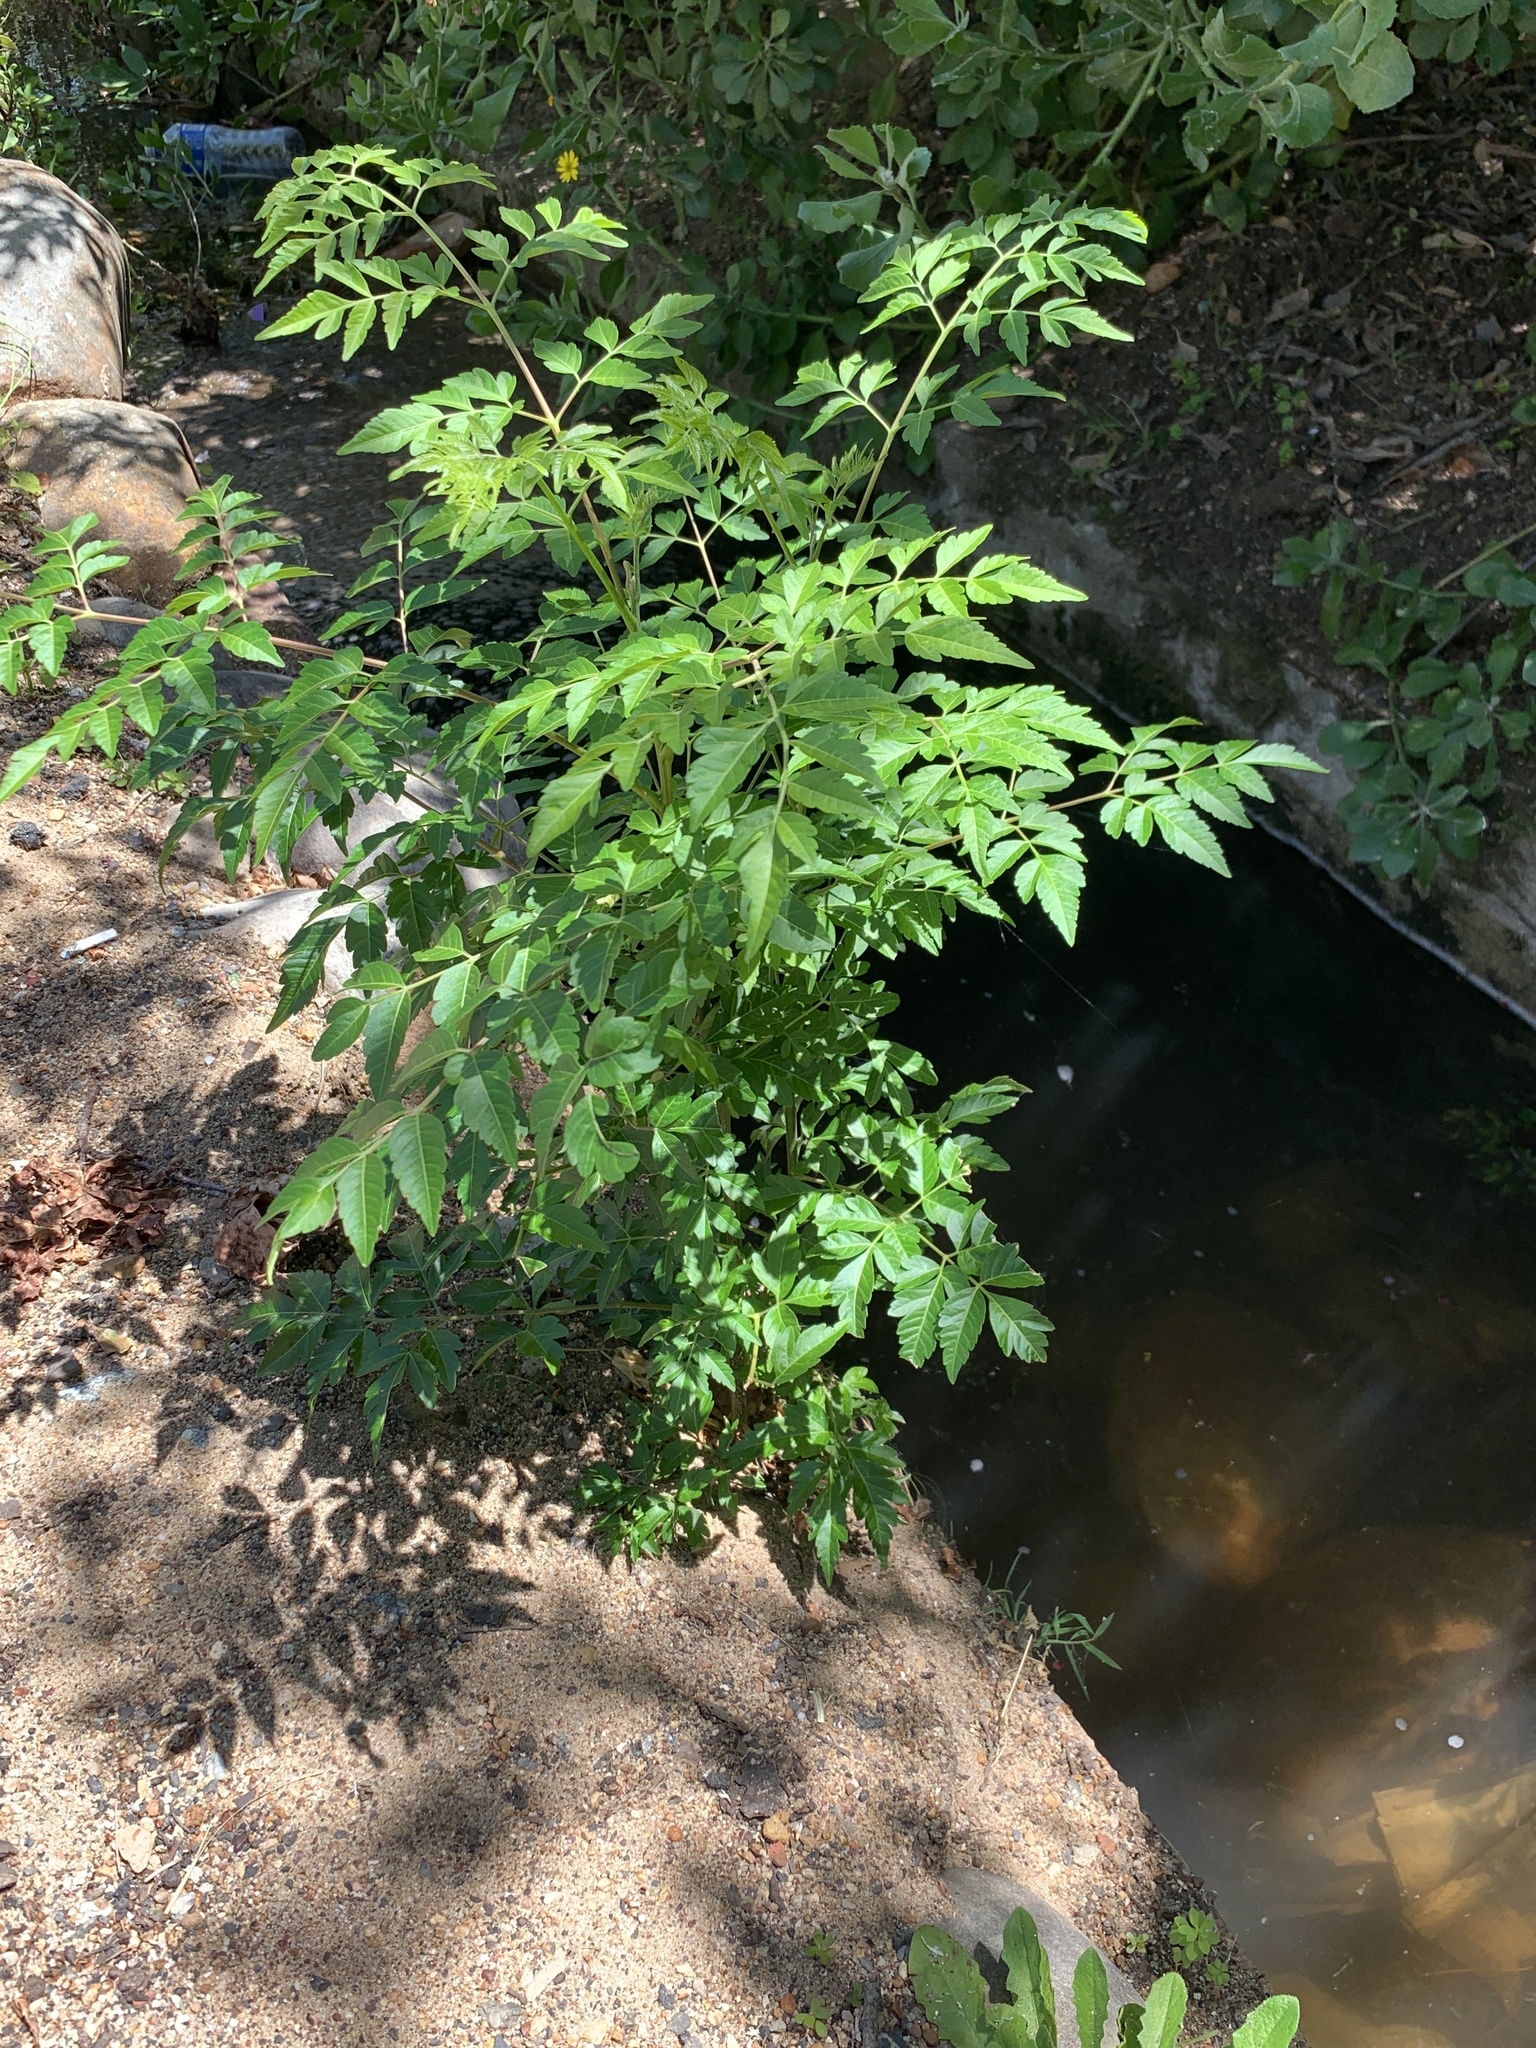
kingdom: Plantae
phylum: Tracheophyta
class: Magnoliopsida
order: Sapindales
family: Meliaceae
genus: Melia
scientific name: Melia azedarach
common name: Chinaberrytree
